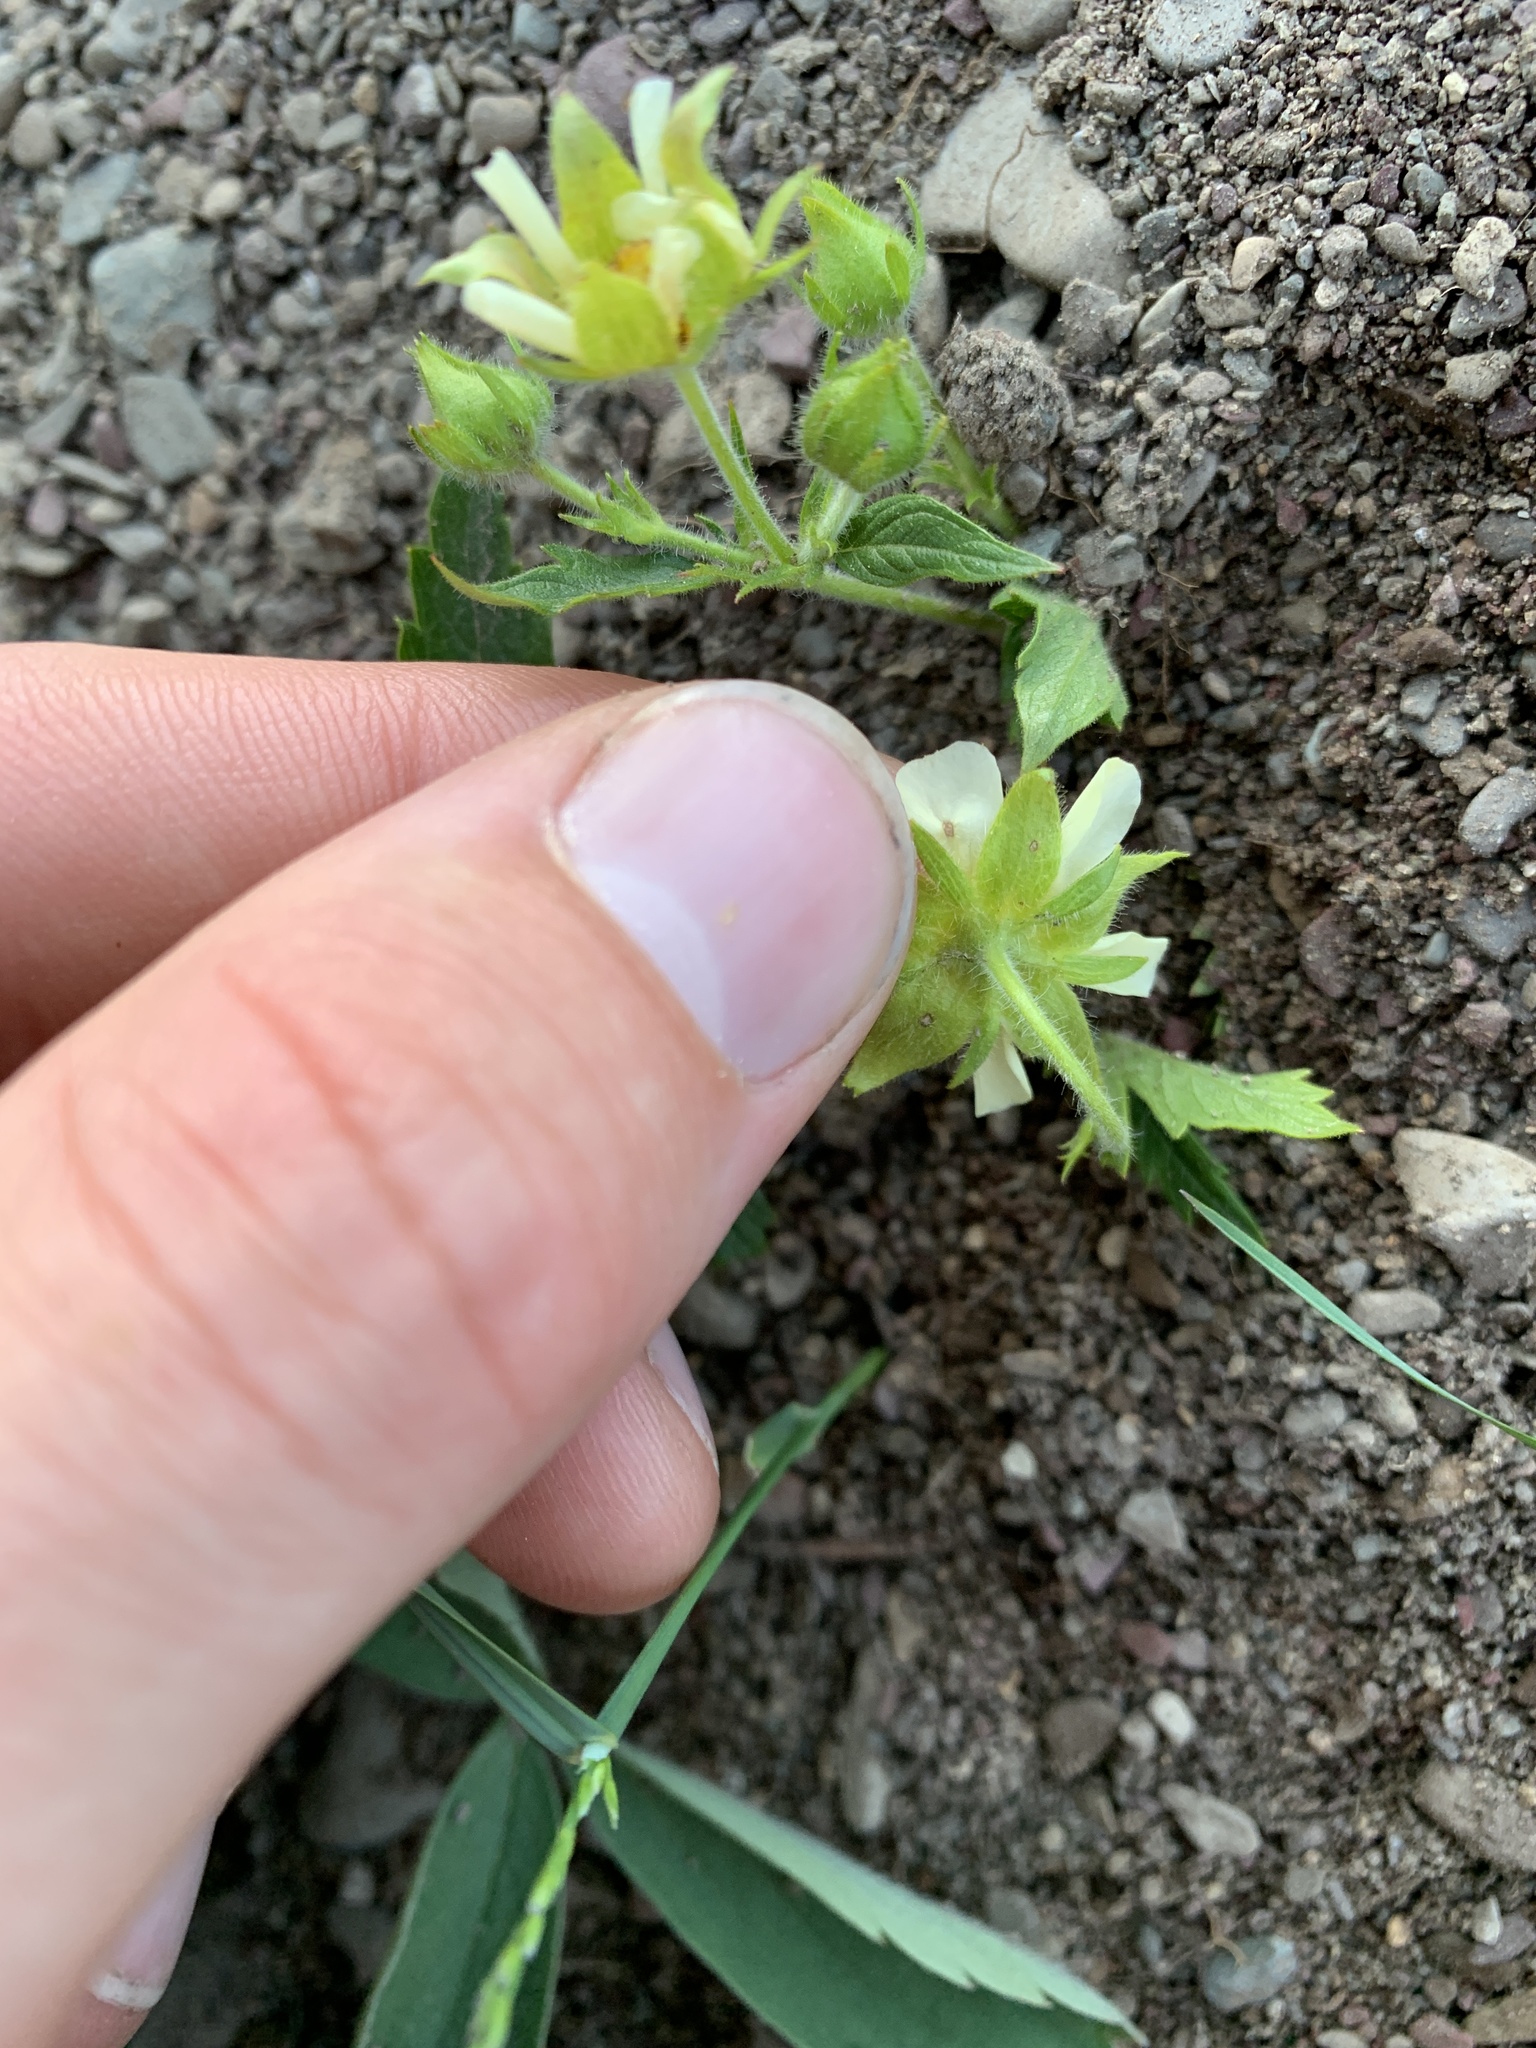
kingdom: Plantae
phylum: Tracheophyta
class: Magnoliopsida
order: Rosales
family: Rosaceae
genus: Fragaria
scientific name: Fragaria virginiana
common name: Thickleaved wild strawberry
